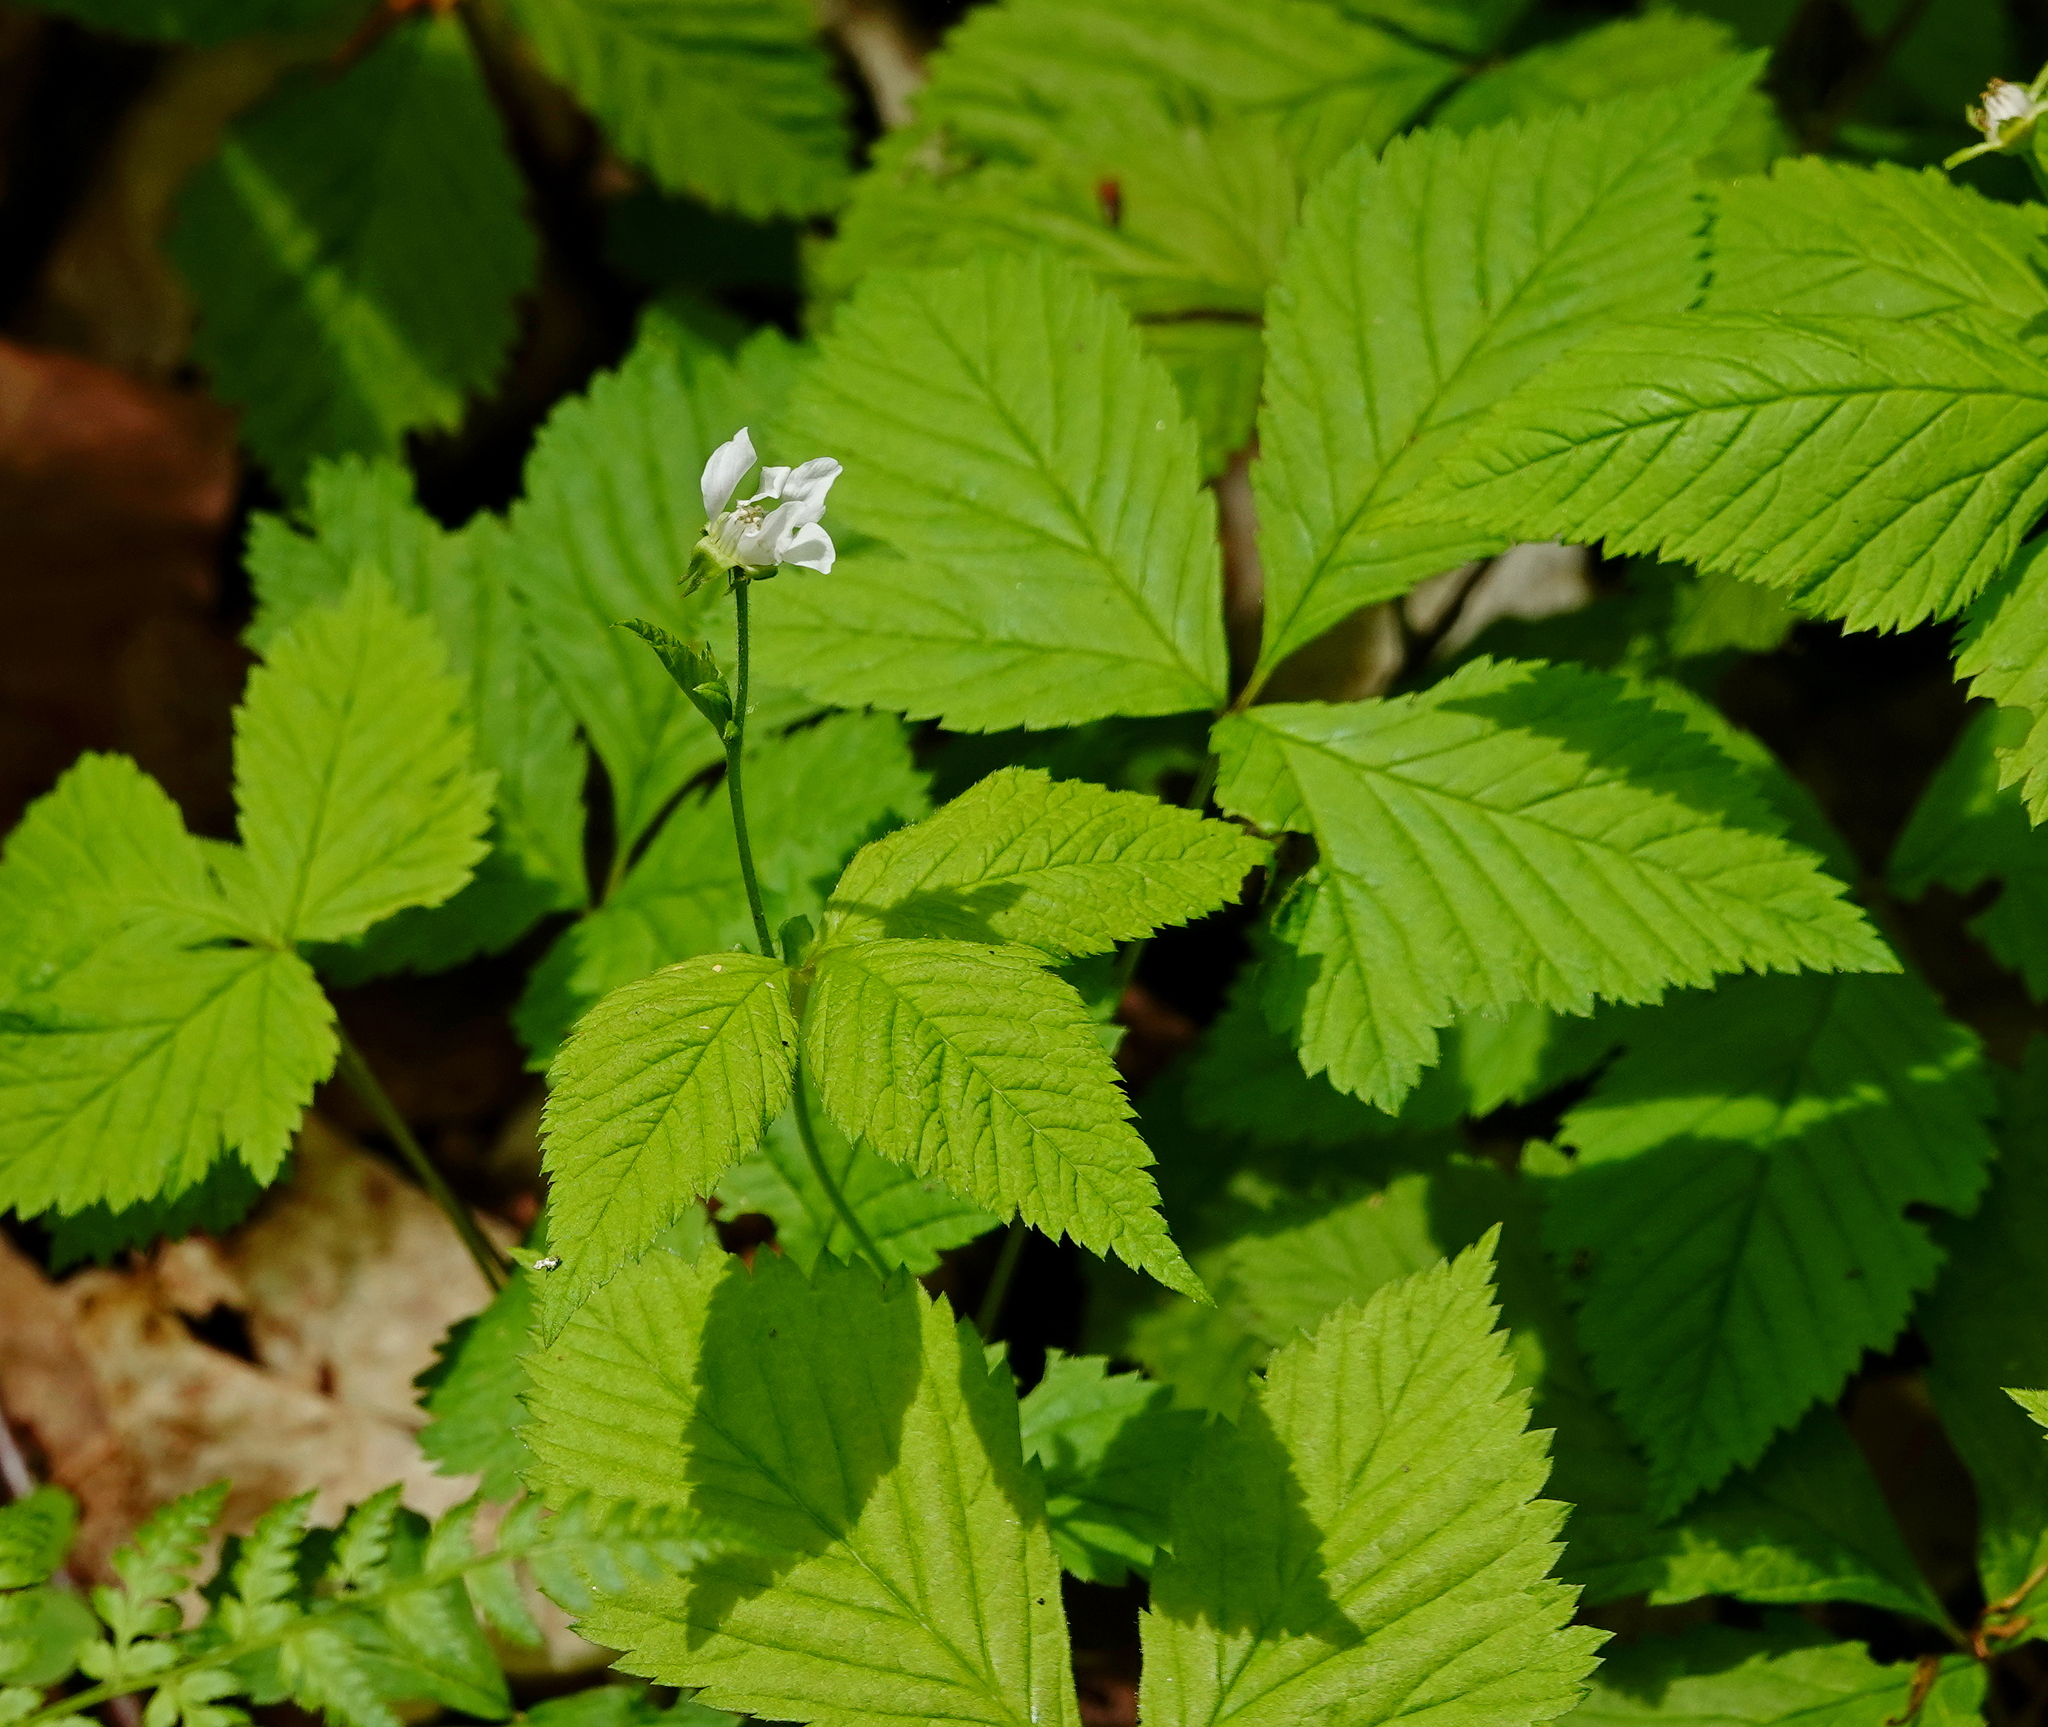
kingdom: Plantae
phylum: Tracheophyta
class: Magnoliopsida
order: Rosales
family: Rosaceae
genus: Rubus
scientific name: Rubus pubescens
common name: Dwarf raspberry
